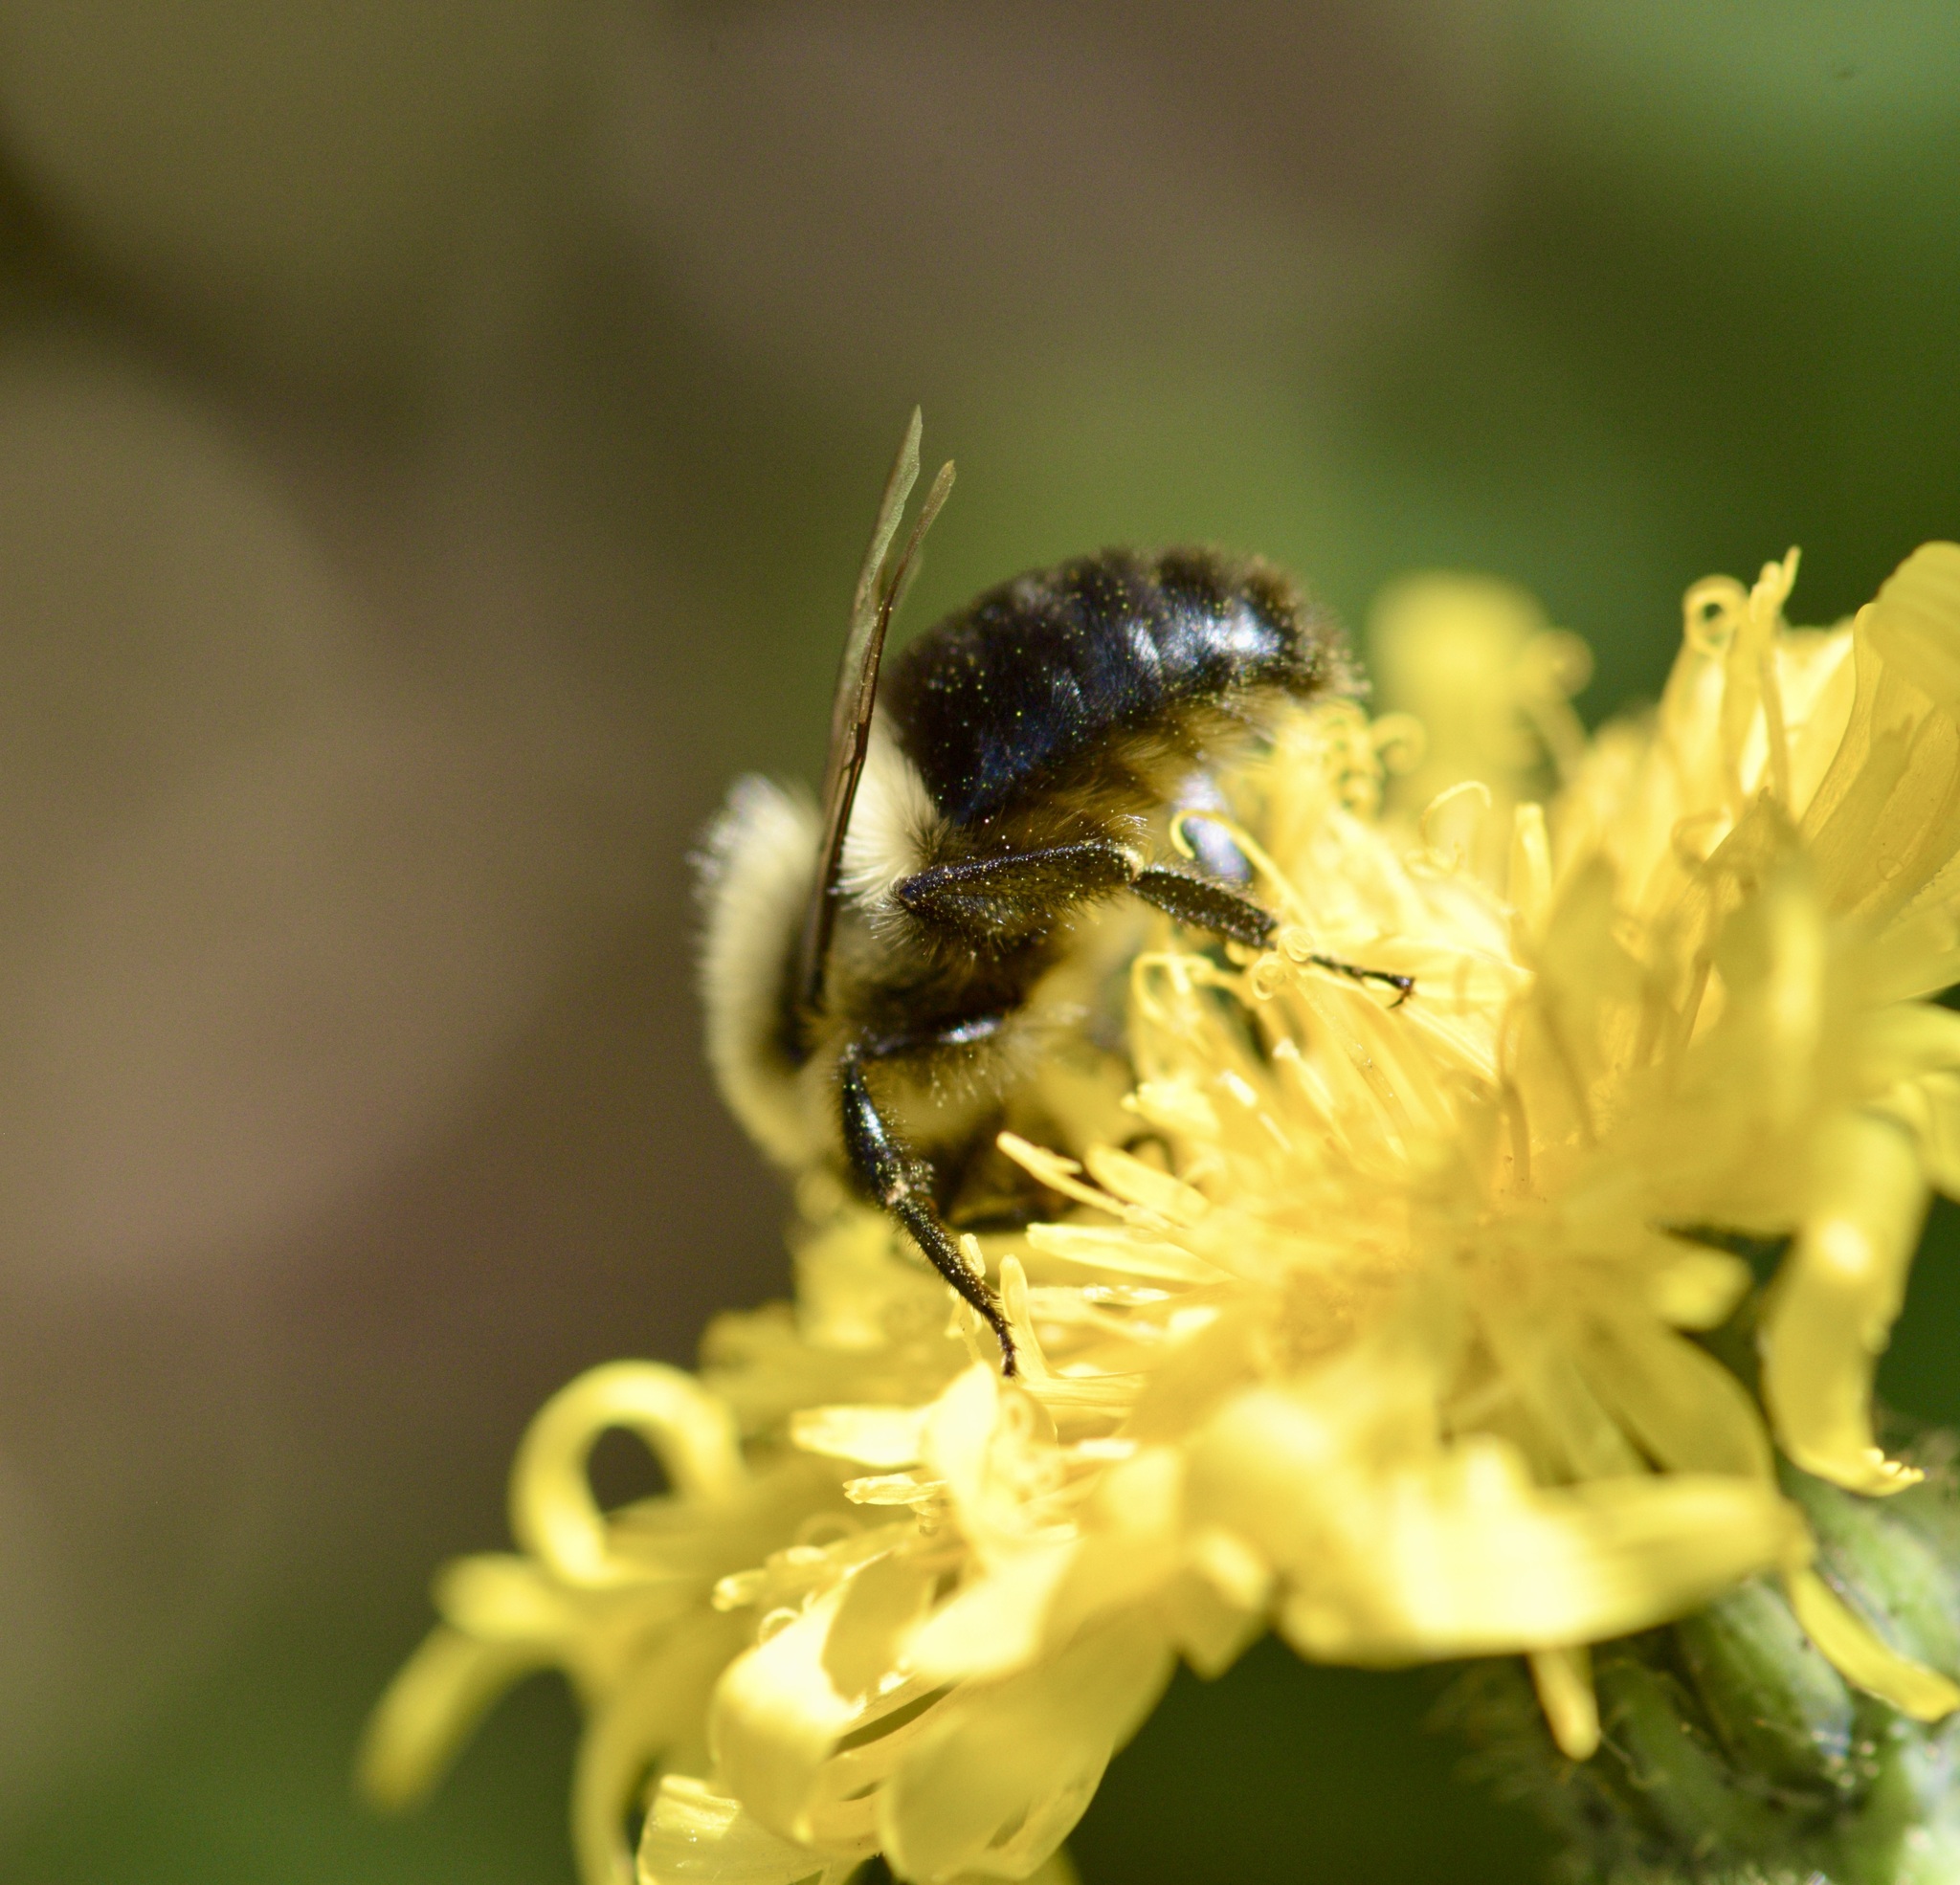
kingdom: Animalia
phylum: Arthropoda
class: Insecta
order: Hymenoptera
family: Apidae
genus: Bombus
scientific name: Bombus impatiens
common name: Common eastern bumble bee
